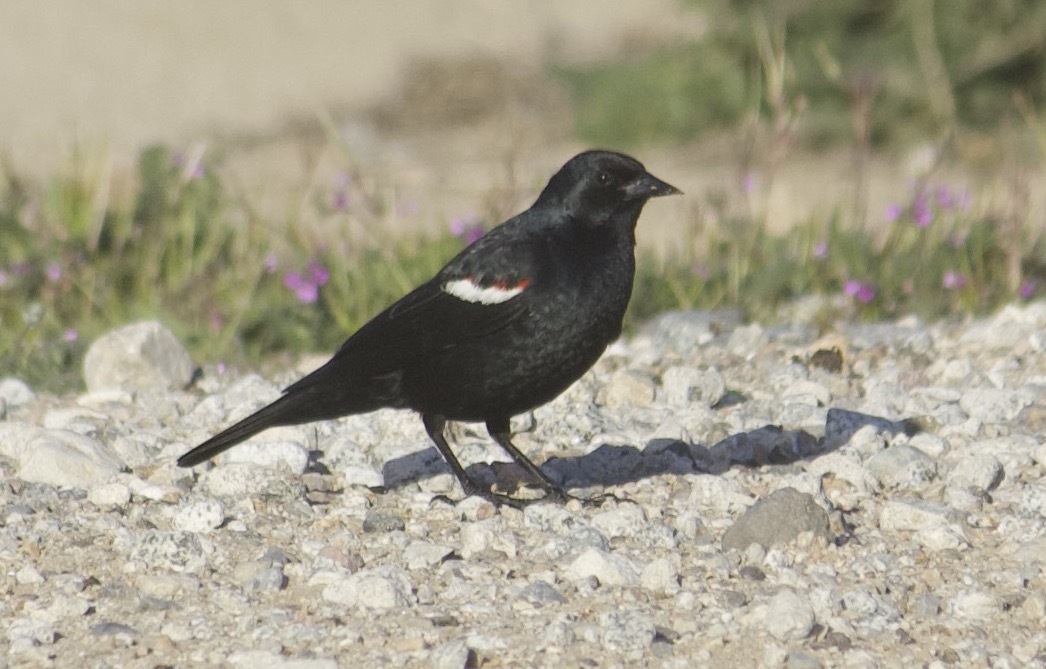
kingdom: Animalia
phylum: Chordata
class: Aves
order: Passeriformes
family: Icteridae
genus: Agelaius
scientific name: Agelaius tricolor
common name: Tricolored blackbird
